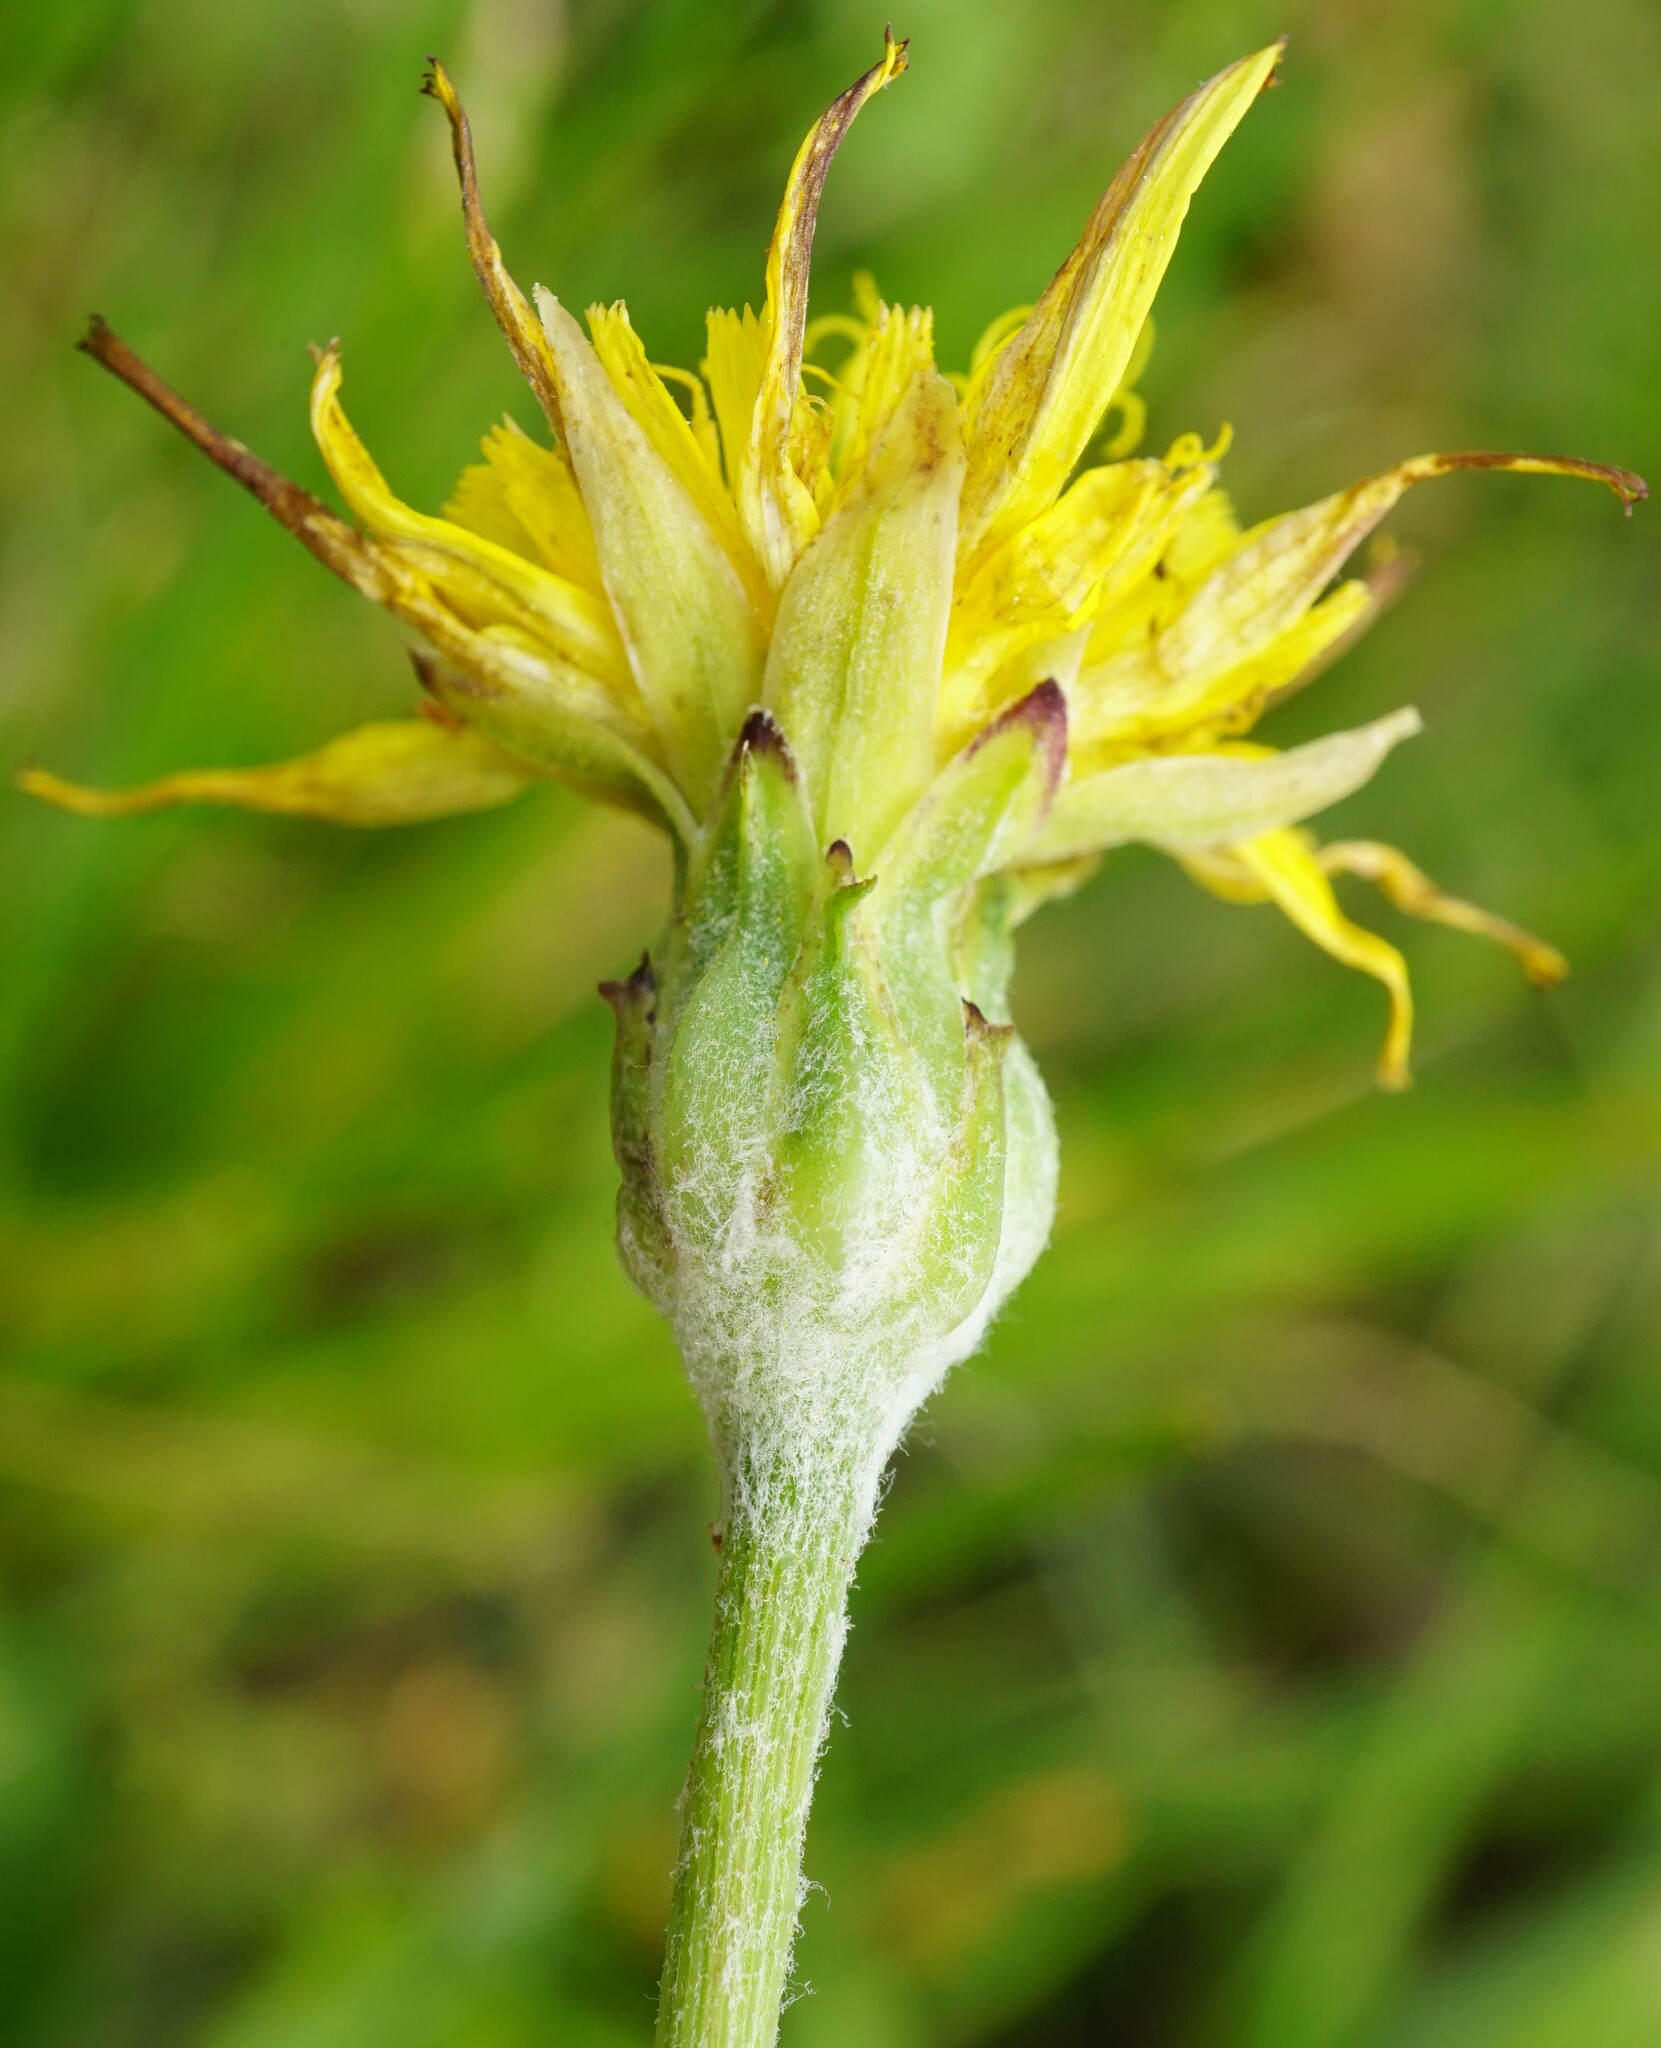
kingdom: Plantae
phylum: Tracheophyta
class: Magnoliopsida
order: Asterales
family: Asteraceae
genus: Scorzonera
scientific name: Scorzonera cana
